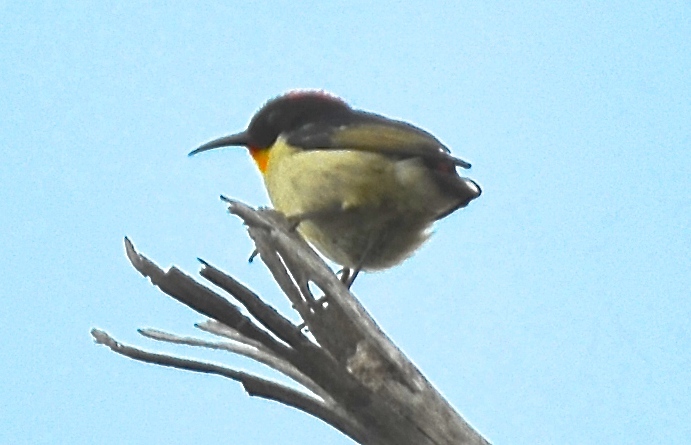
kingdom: Animalia
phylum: Chordata
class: Aves
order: Passeriformes
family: Meliphagidae
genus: Myzomela
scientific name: Myzomela jugularis
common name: Sulphur-breasted myzomela
